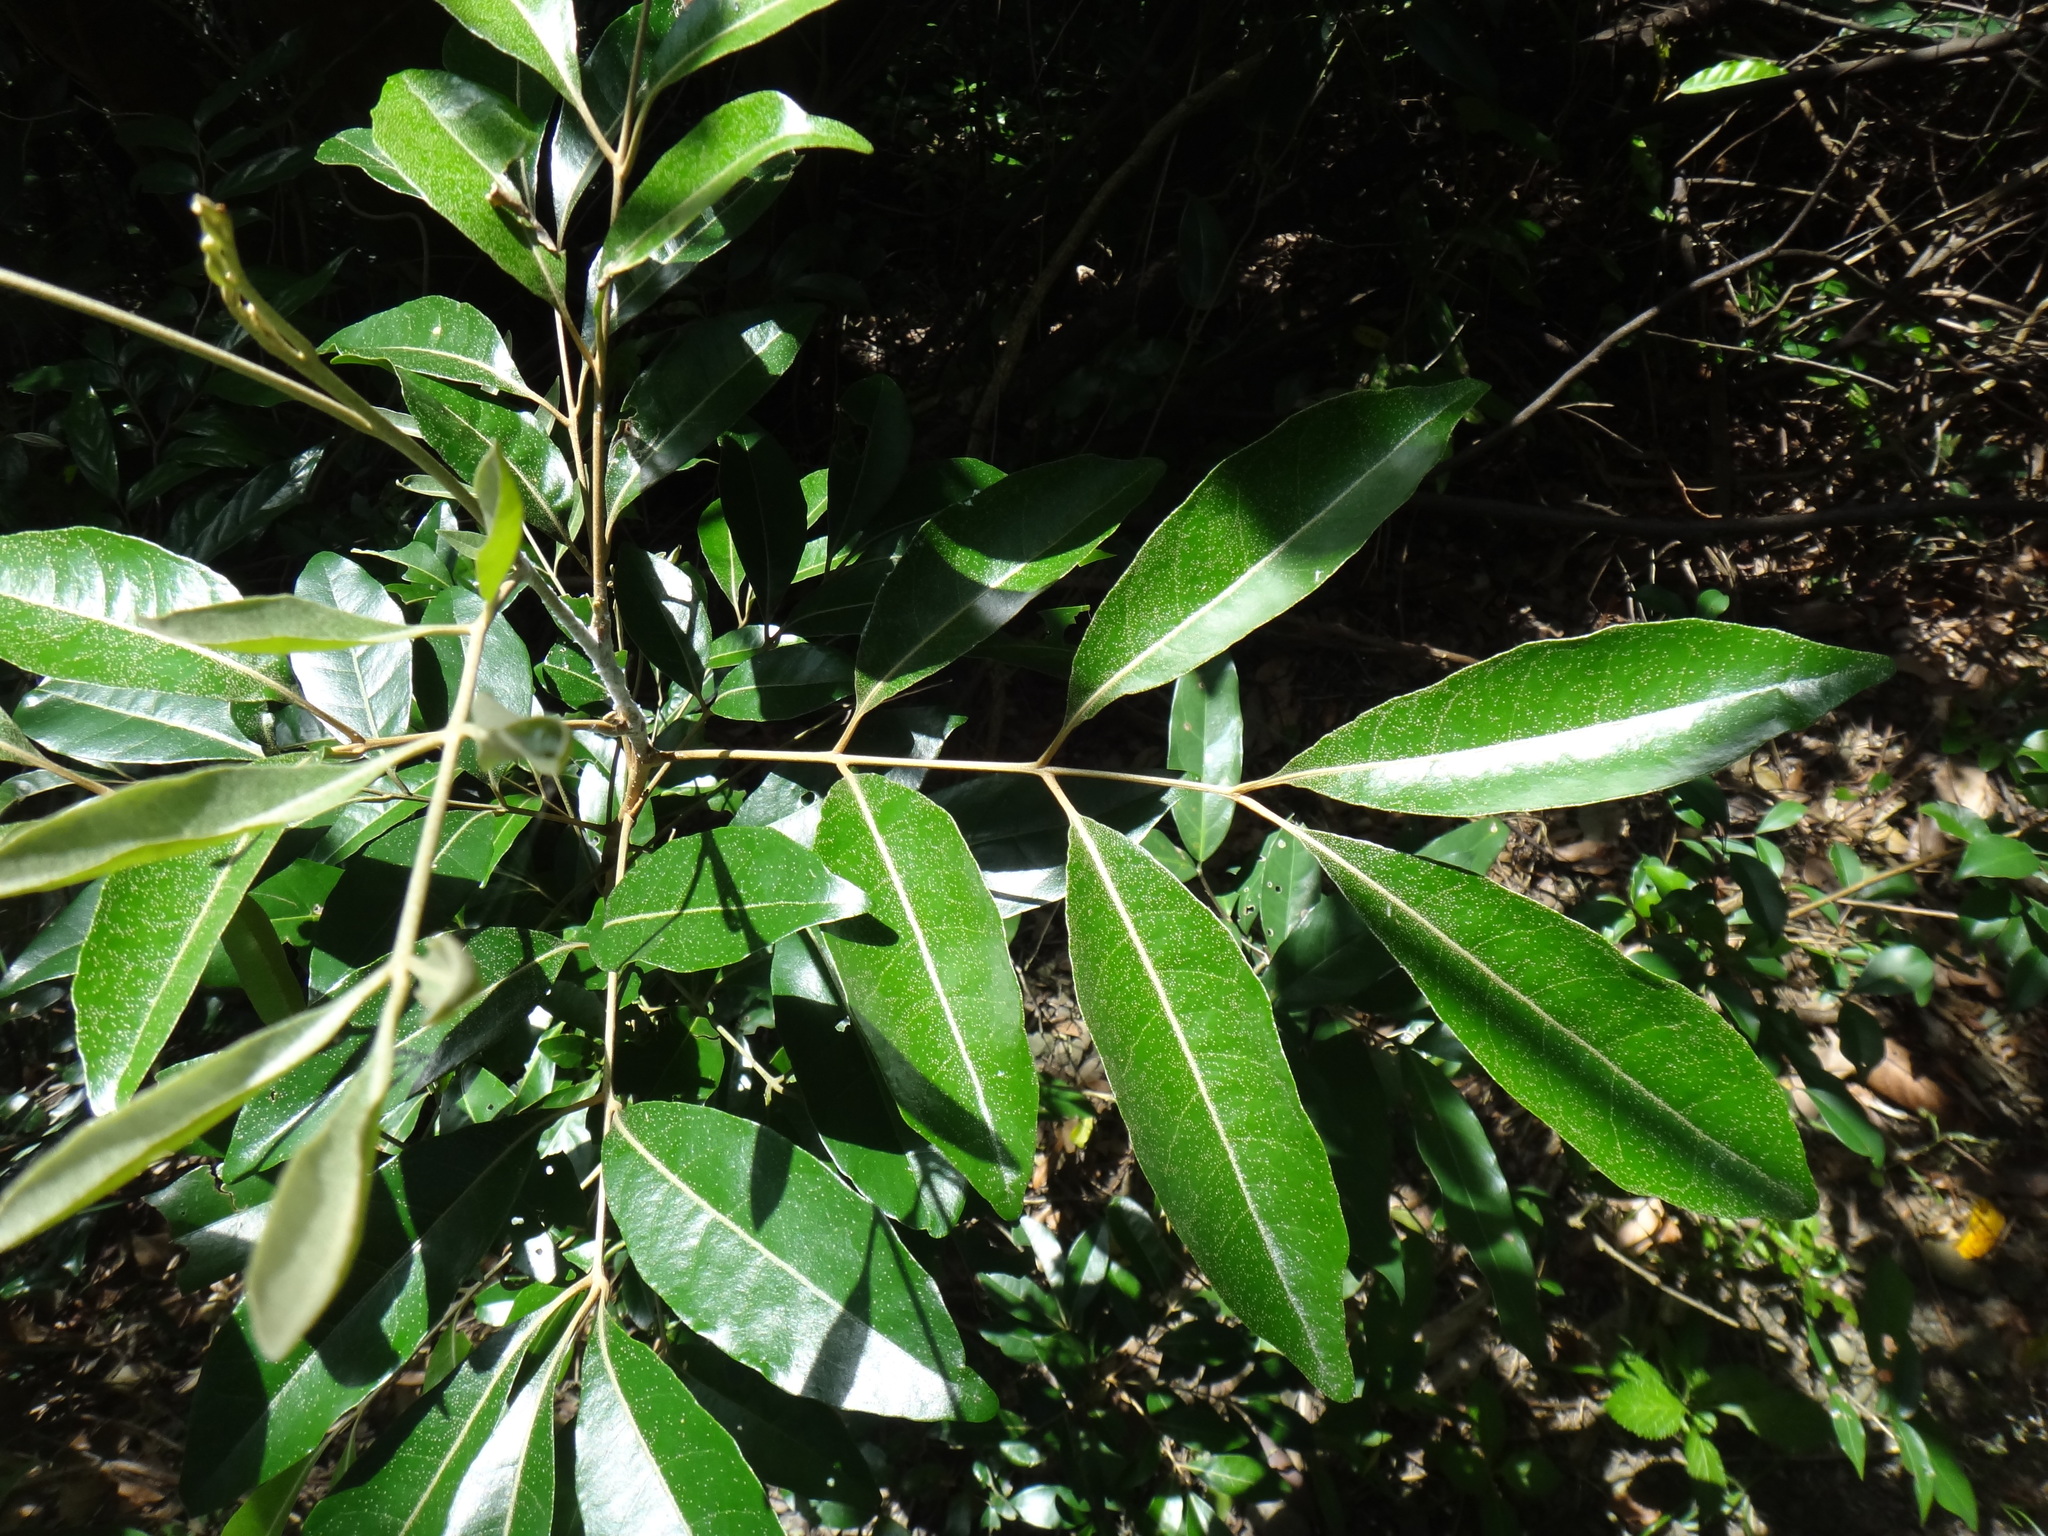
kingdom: Plantae
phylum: Tracheophyta
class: Magnoliopsida
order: Sapindales
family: Meliaceae
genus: Aglaia
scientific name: Aglaia elaeagnoidea
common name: Droopyleaf
